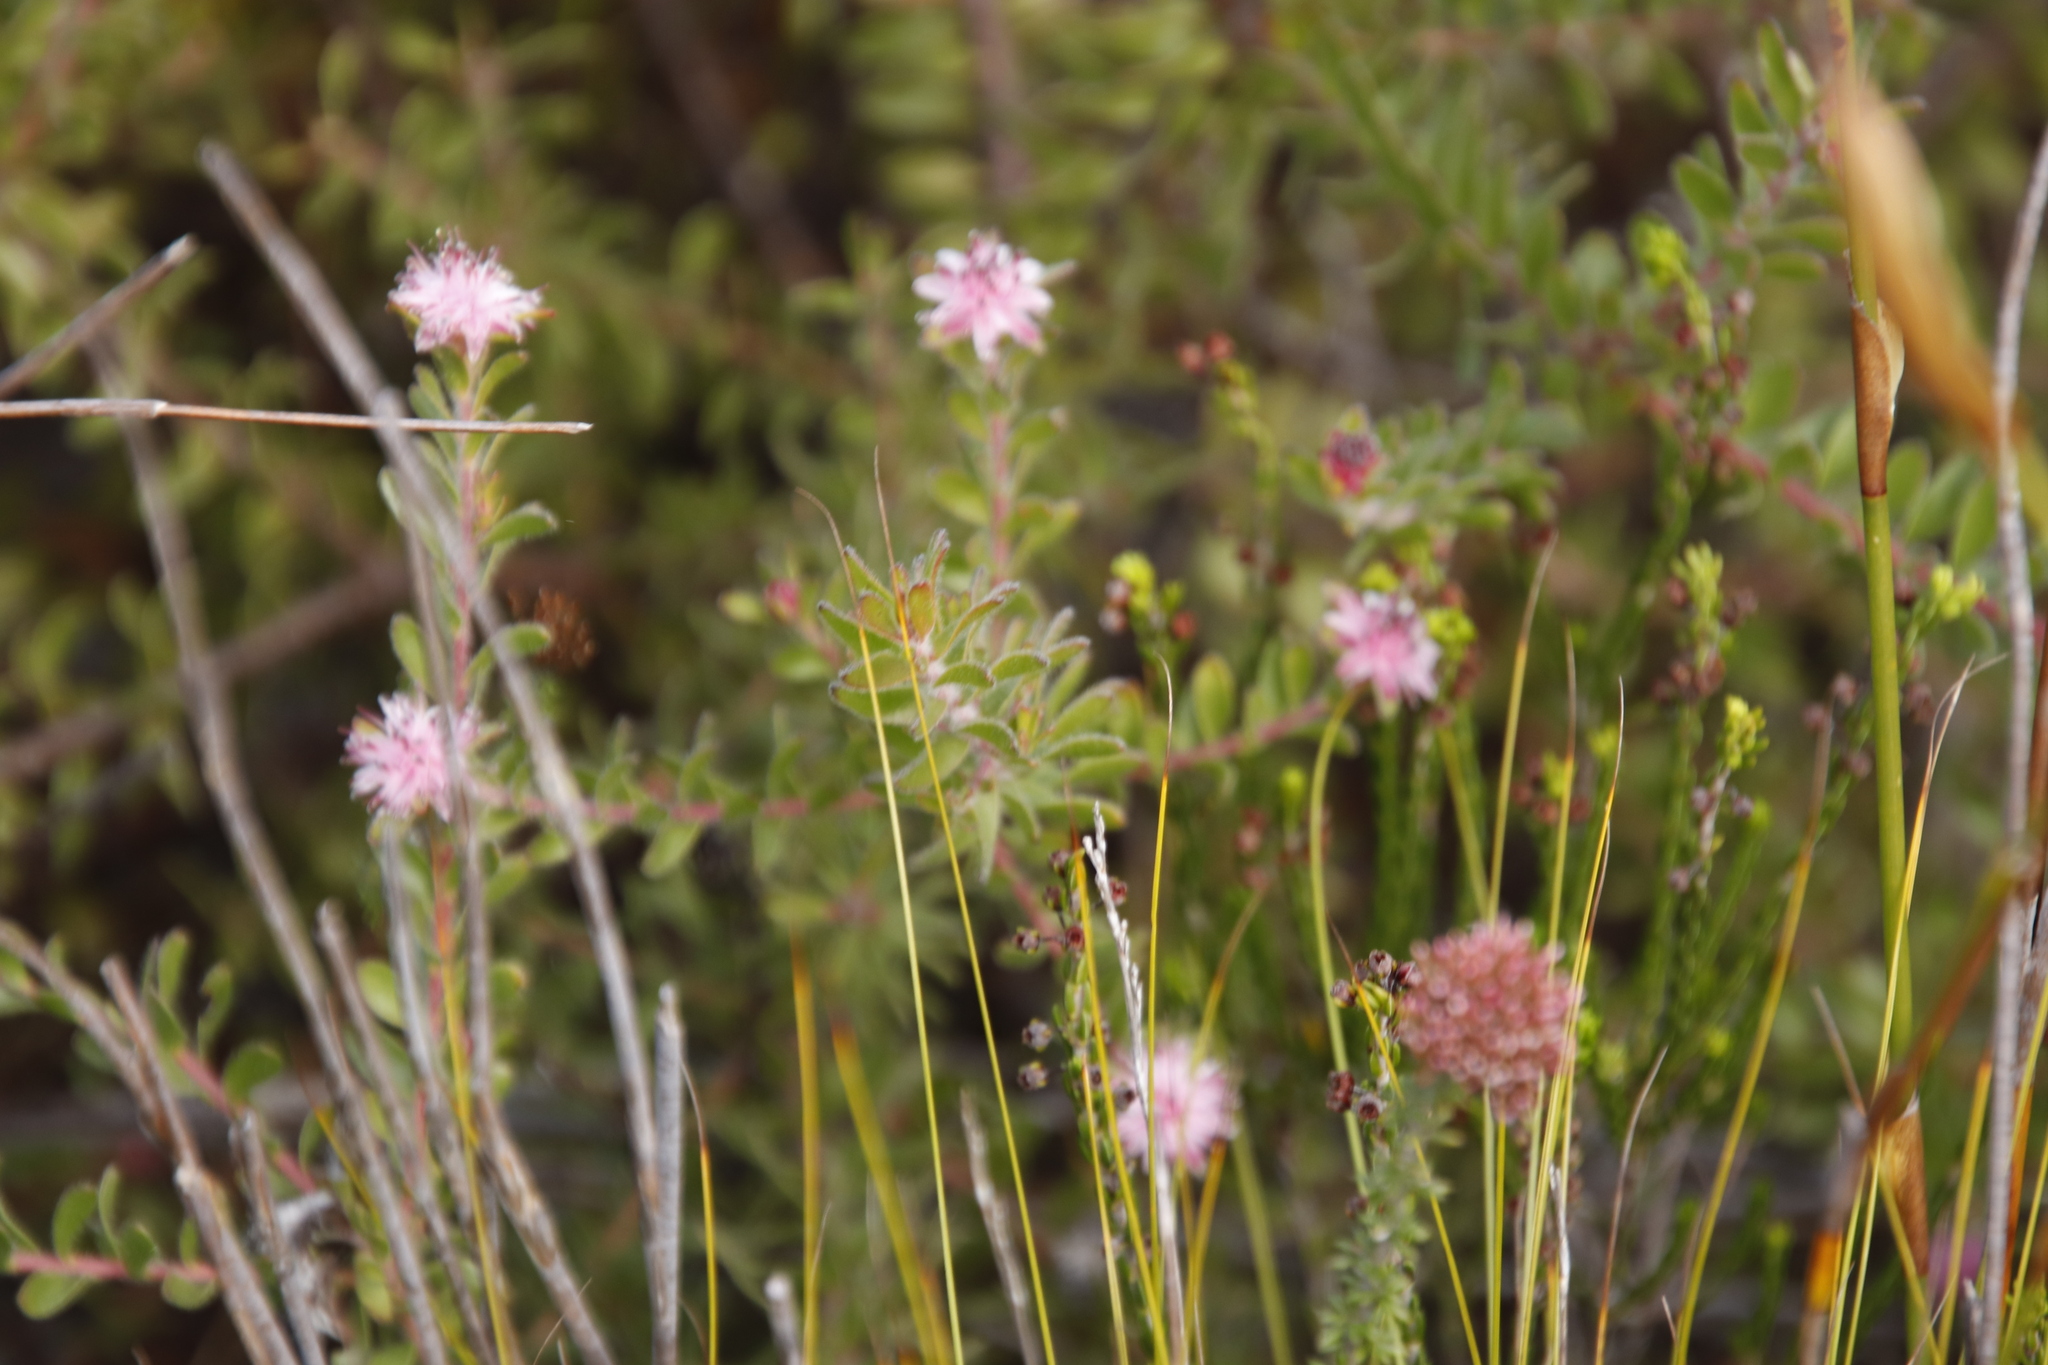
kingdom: Plantae
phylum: Tracheophyta
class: Magnoliopsida
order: Proteales
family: Proteaceae
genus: Diastella
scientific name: Diastella divaricata
